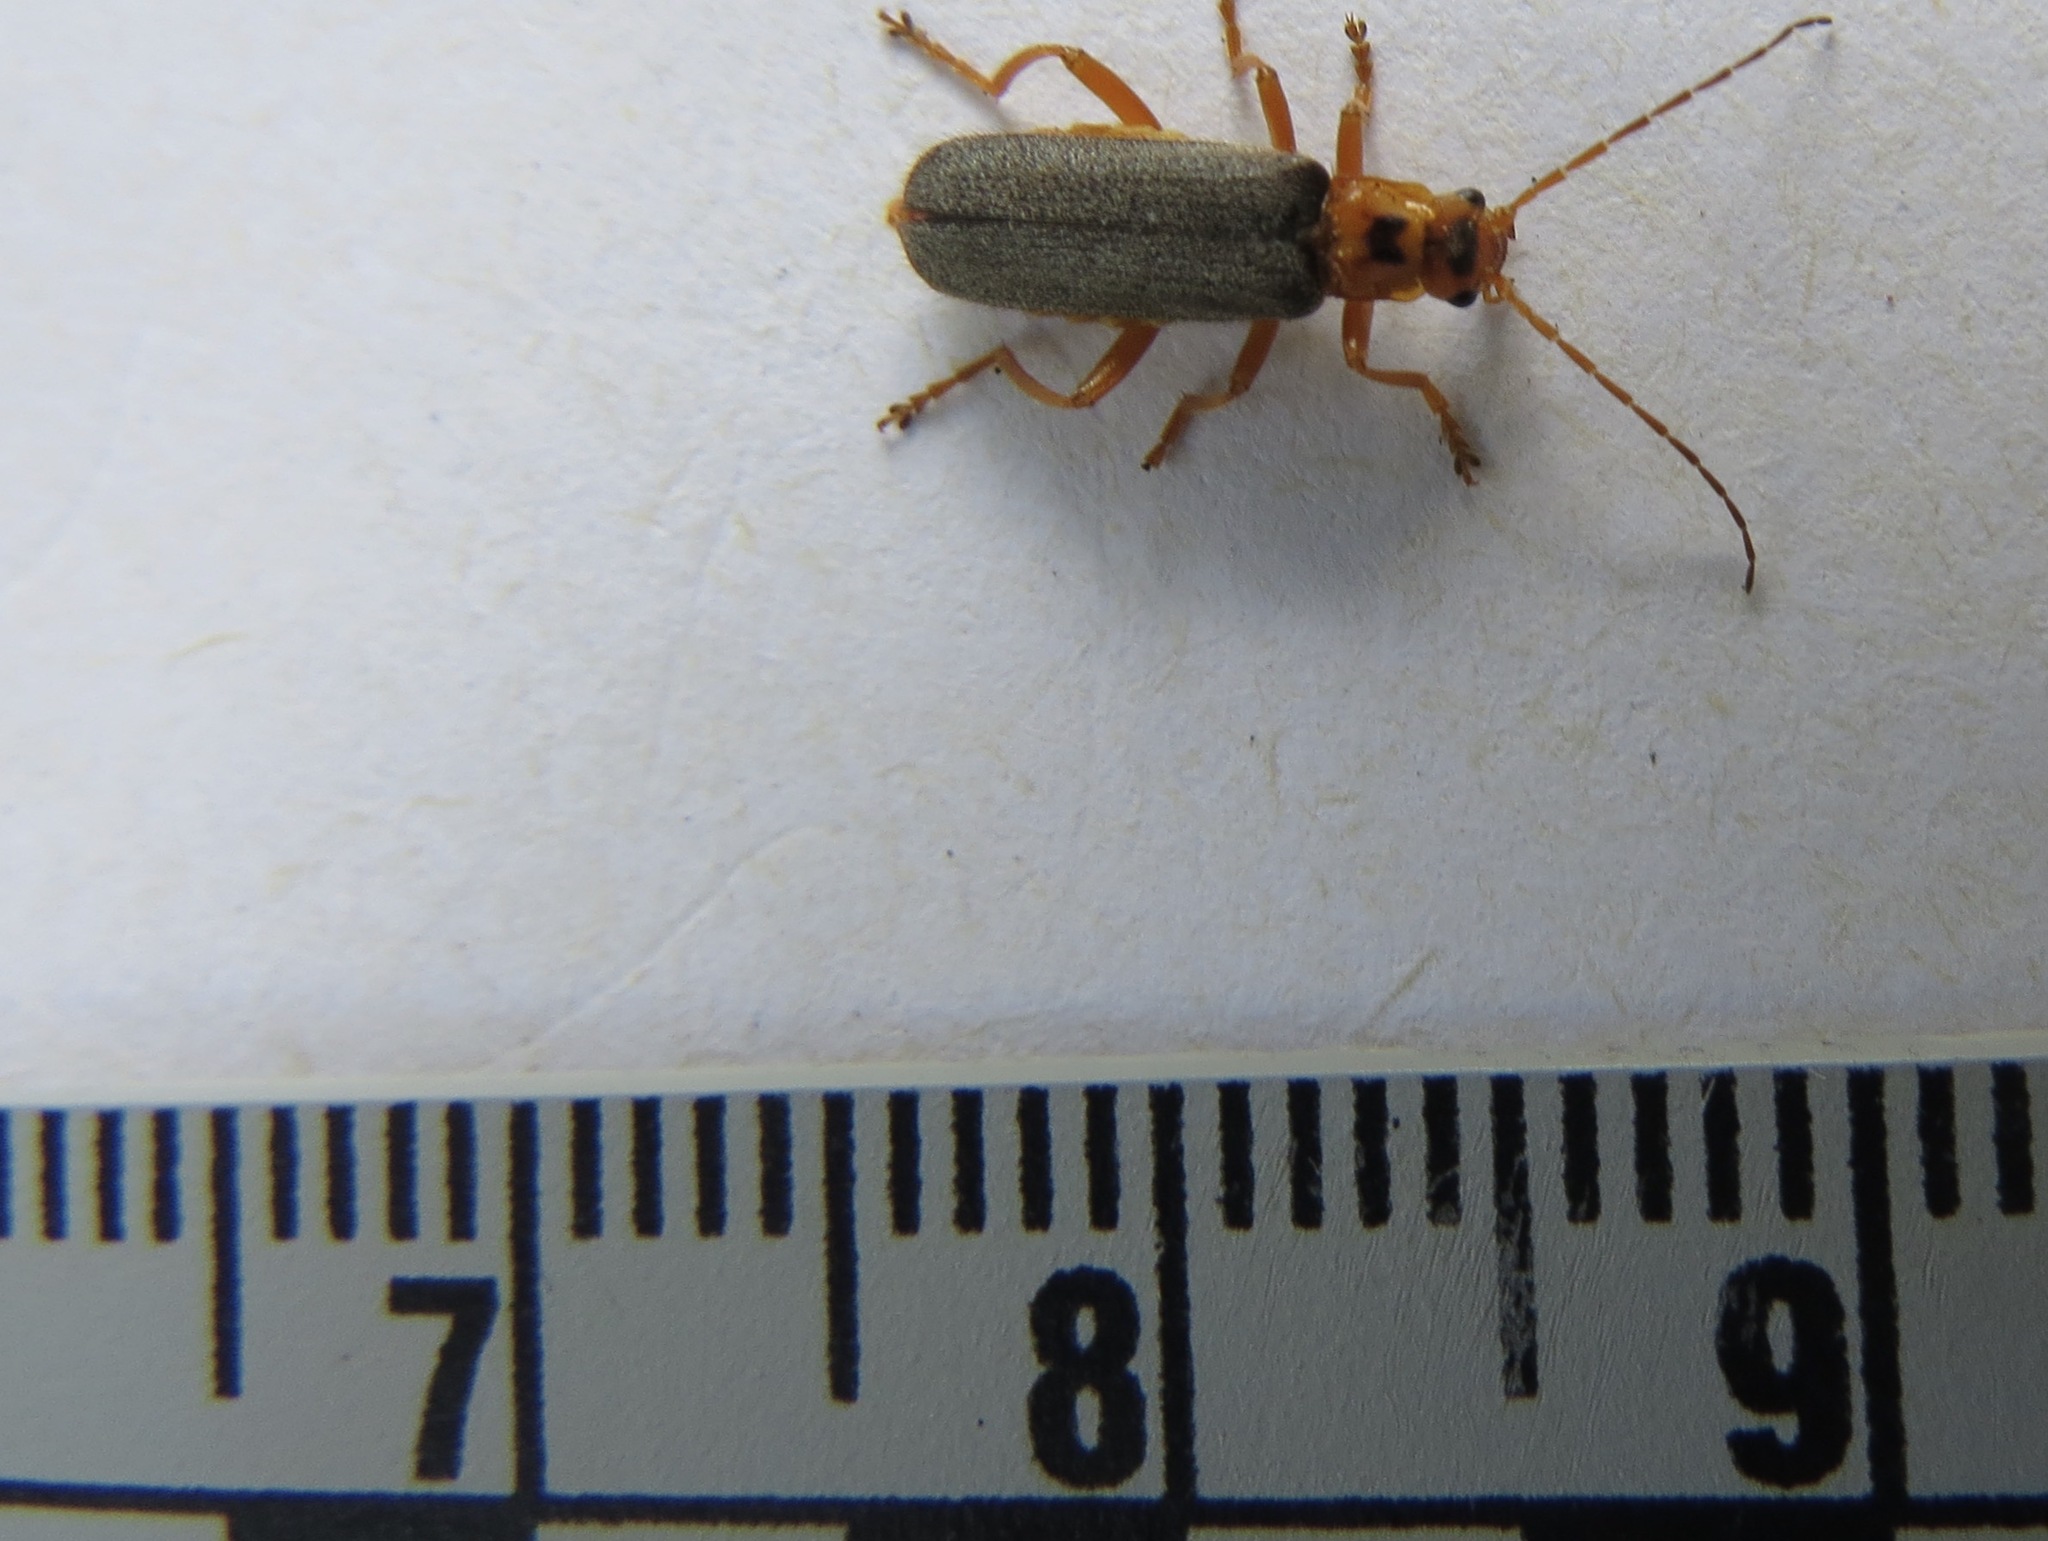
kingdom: Animalia
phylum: Arthropoda
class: Insecta
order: Coleoptera
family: Cantharidae
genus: Cultellunguis
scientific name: Cultellunguis americanus
